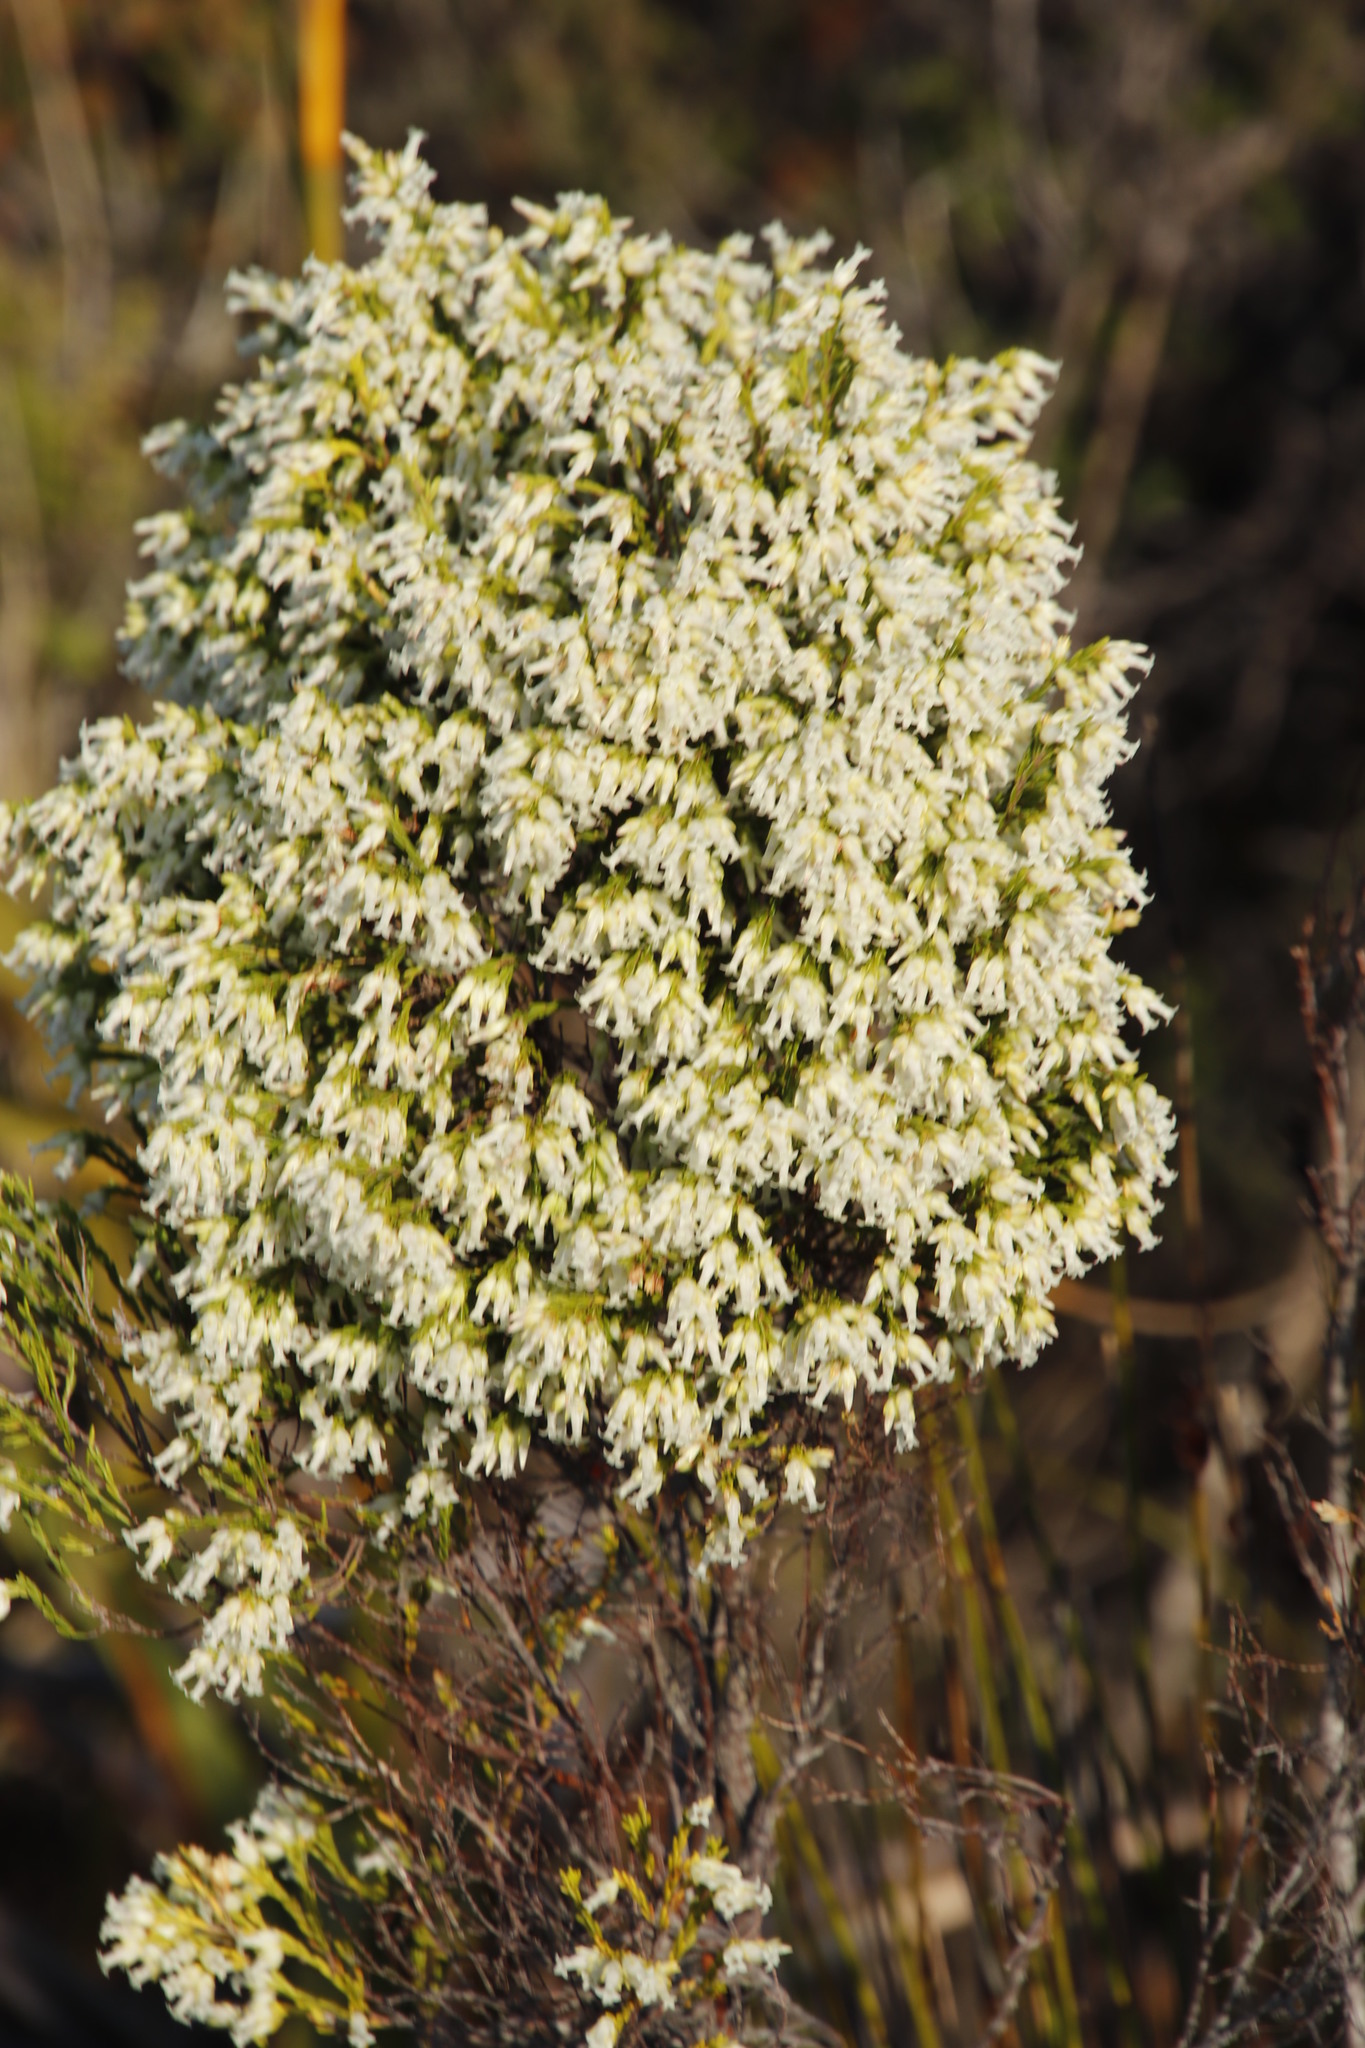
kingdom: Plantae
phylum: Tracheophyta
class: Magnoliopsida
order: Ericales
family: Ericaceae
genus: Erica
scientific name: Erica lutea
